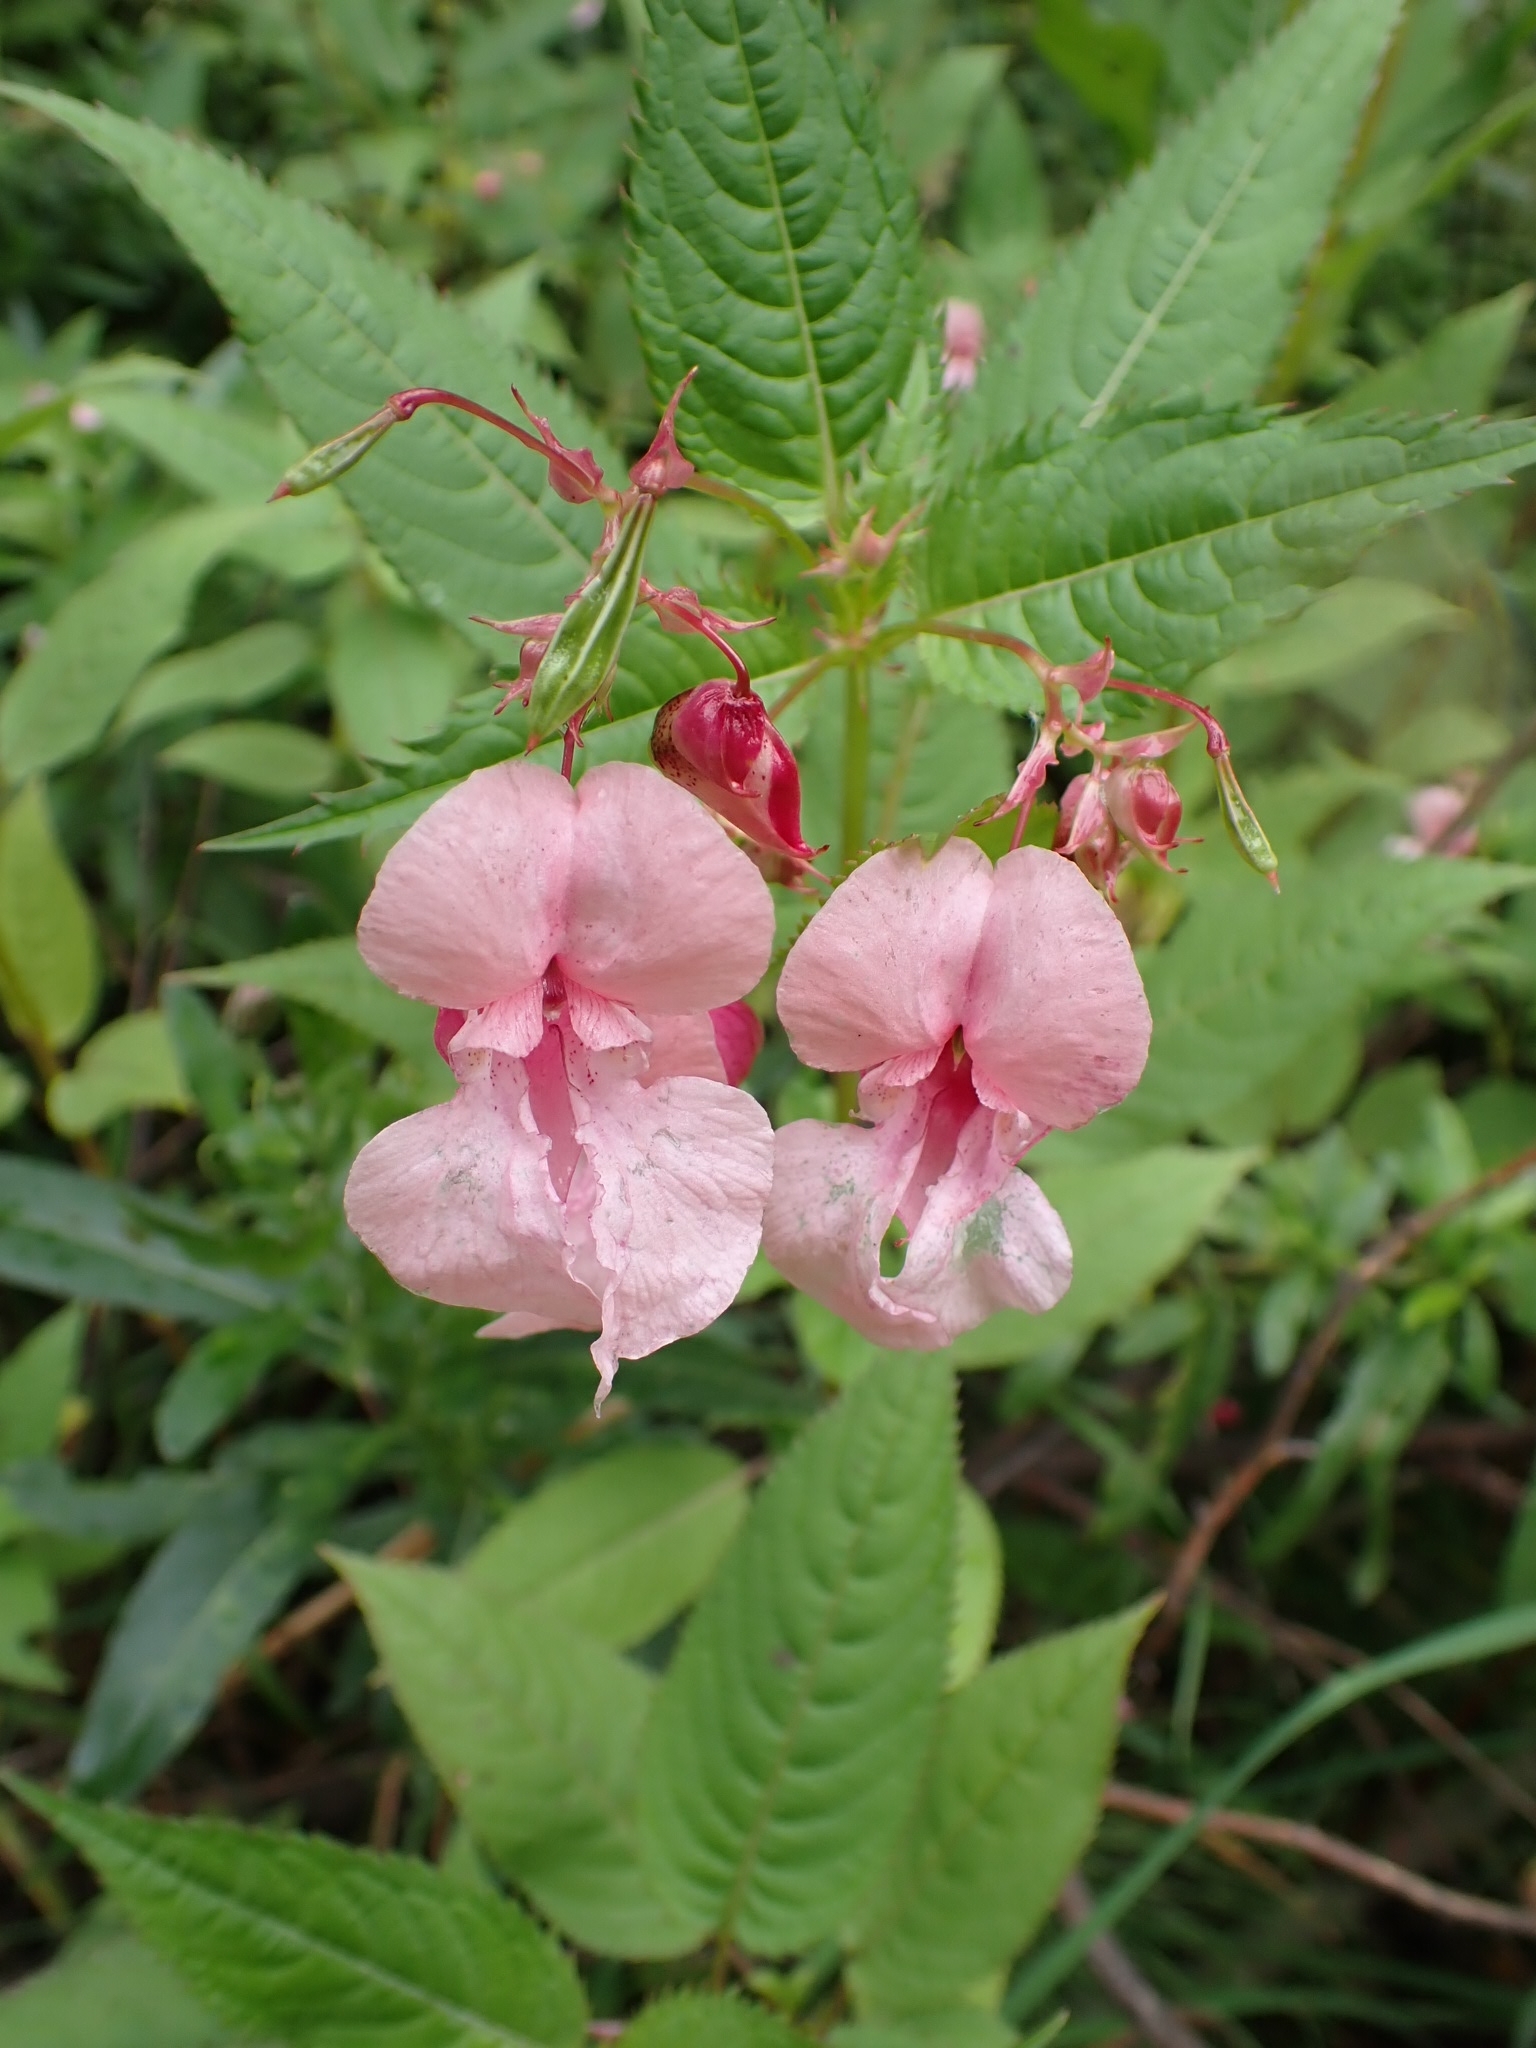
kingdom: Plantae
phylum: Tracheophyta
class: Magnoliopsida
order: Ericales
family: Balsaminaceae
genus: Impatiens
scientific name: Impatiens glandulifera
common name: Himalayan balsam
